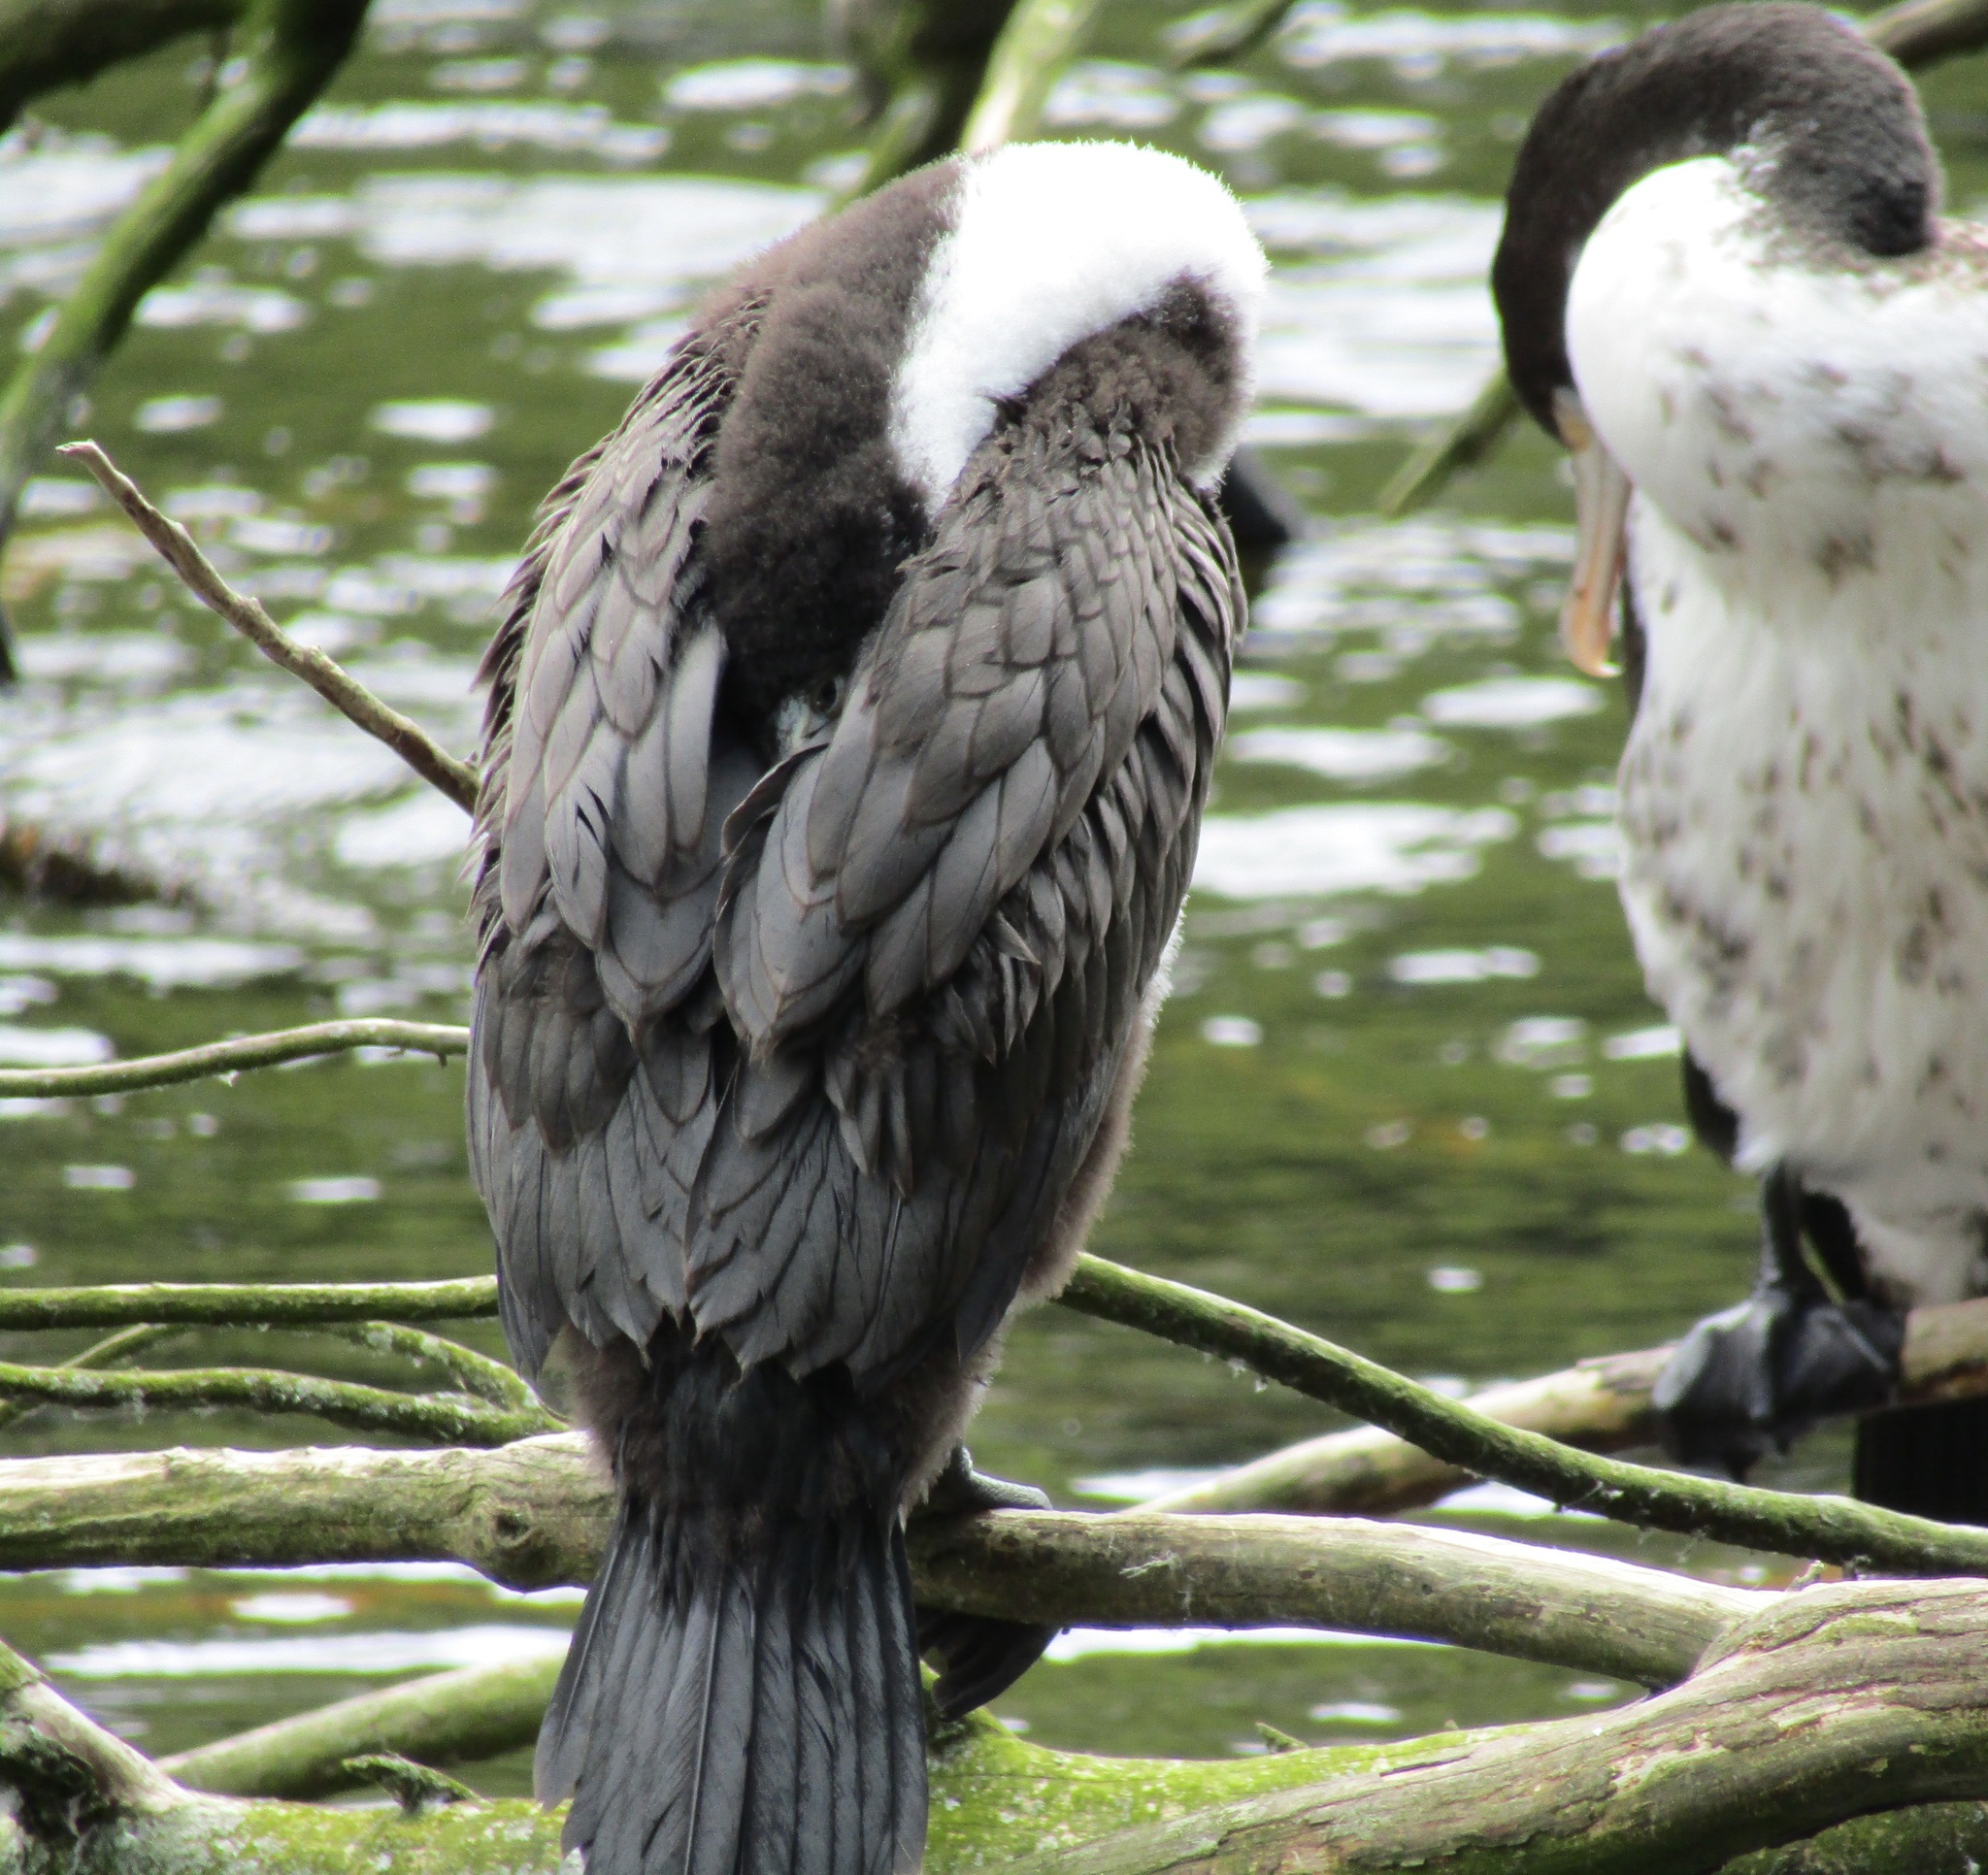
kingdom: Animalia
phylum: Chordata
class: Aves
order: Suliformes
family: Phalacrocoracidae
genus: Phalacrocorax
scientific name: Phalacrocorax varius
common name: Pied cormorant
